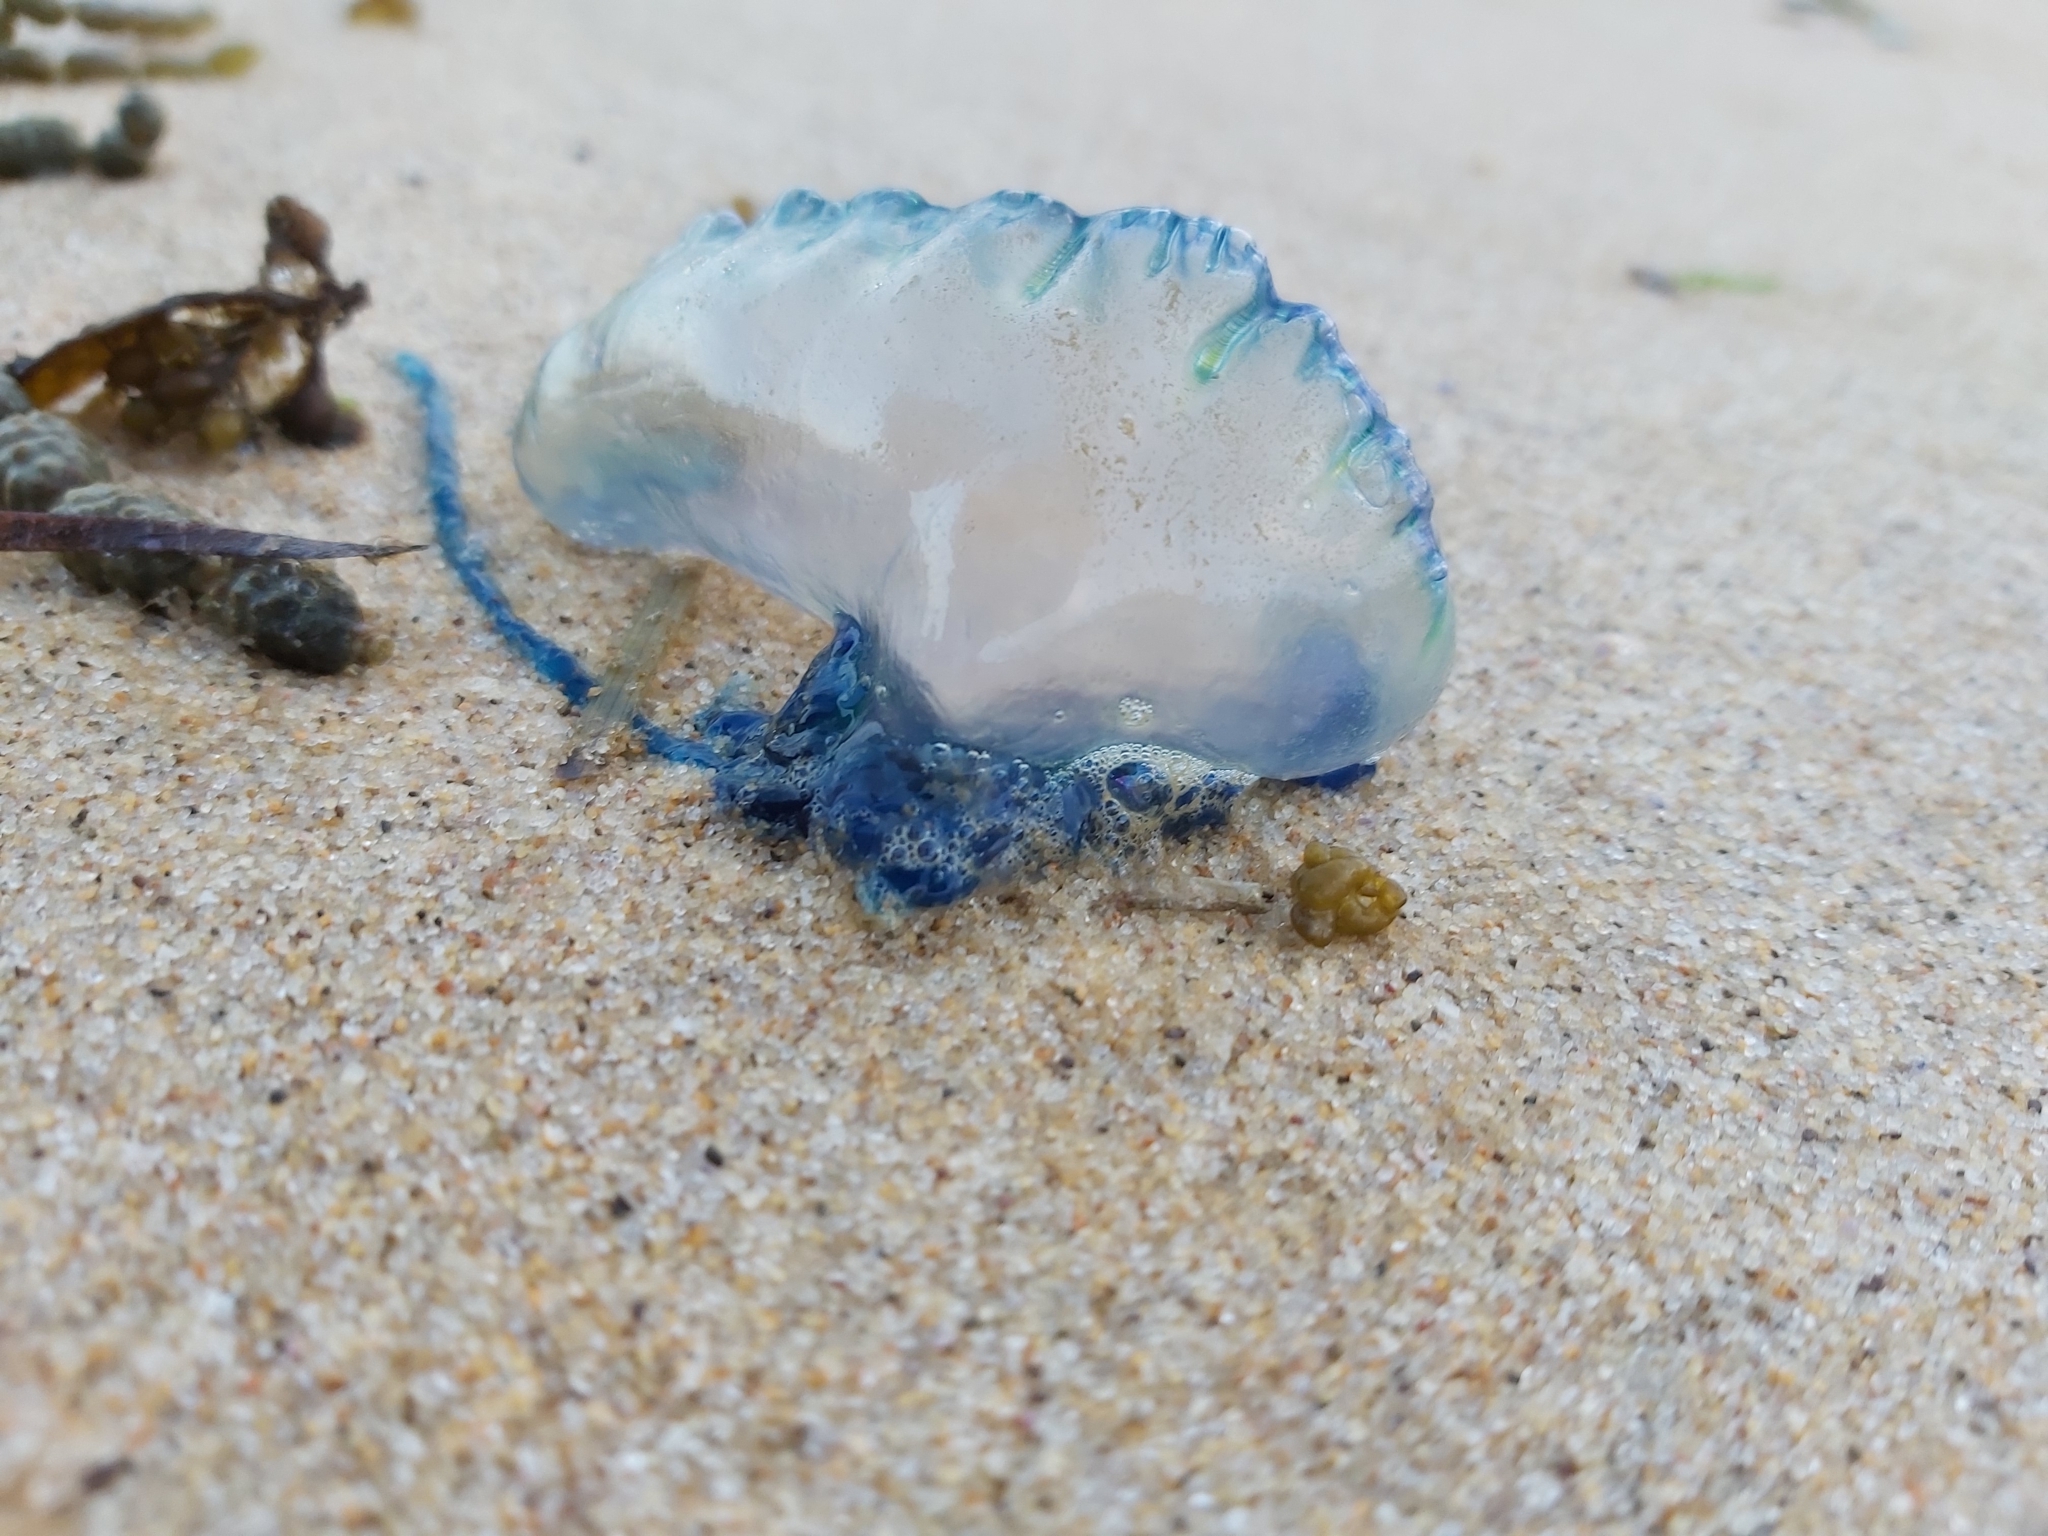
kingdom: Animalia
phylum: Cnidaria
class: Hydrozoa
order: Siphonophorae
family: Physaliidae
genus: Physalia
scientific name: Physalia physalis
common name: Portuguese man-of-war
